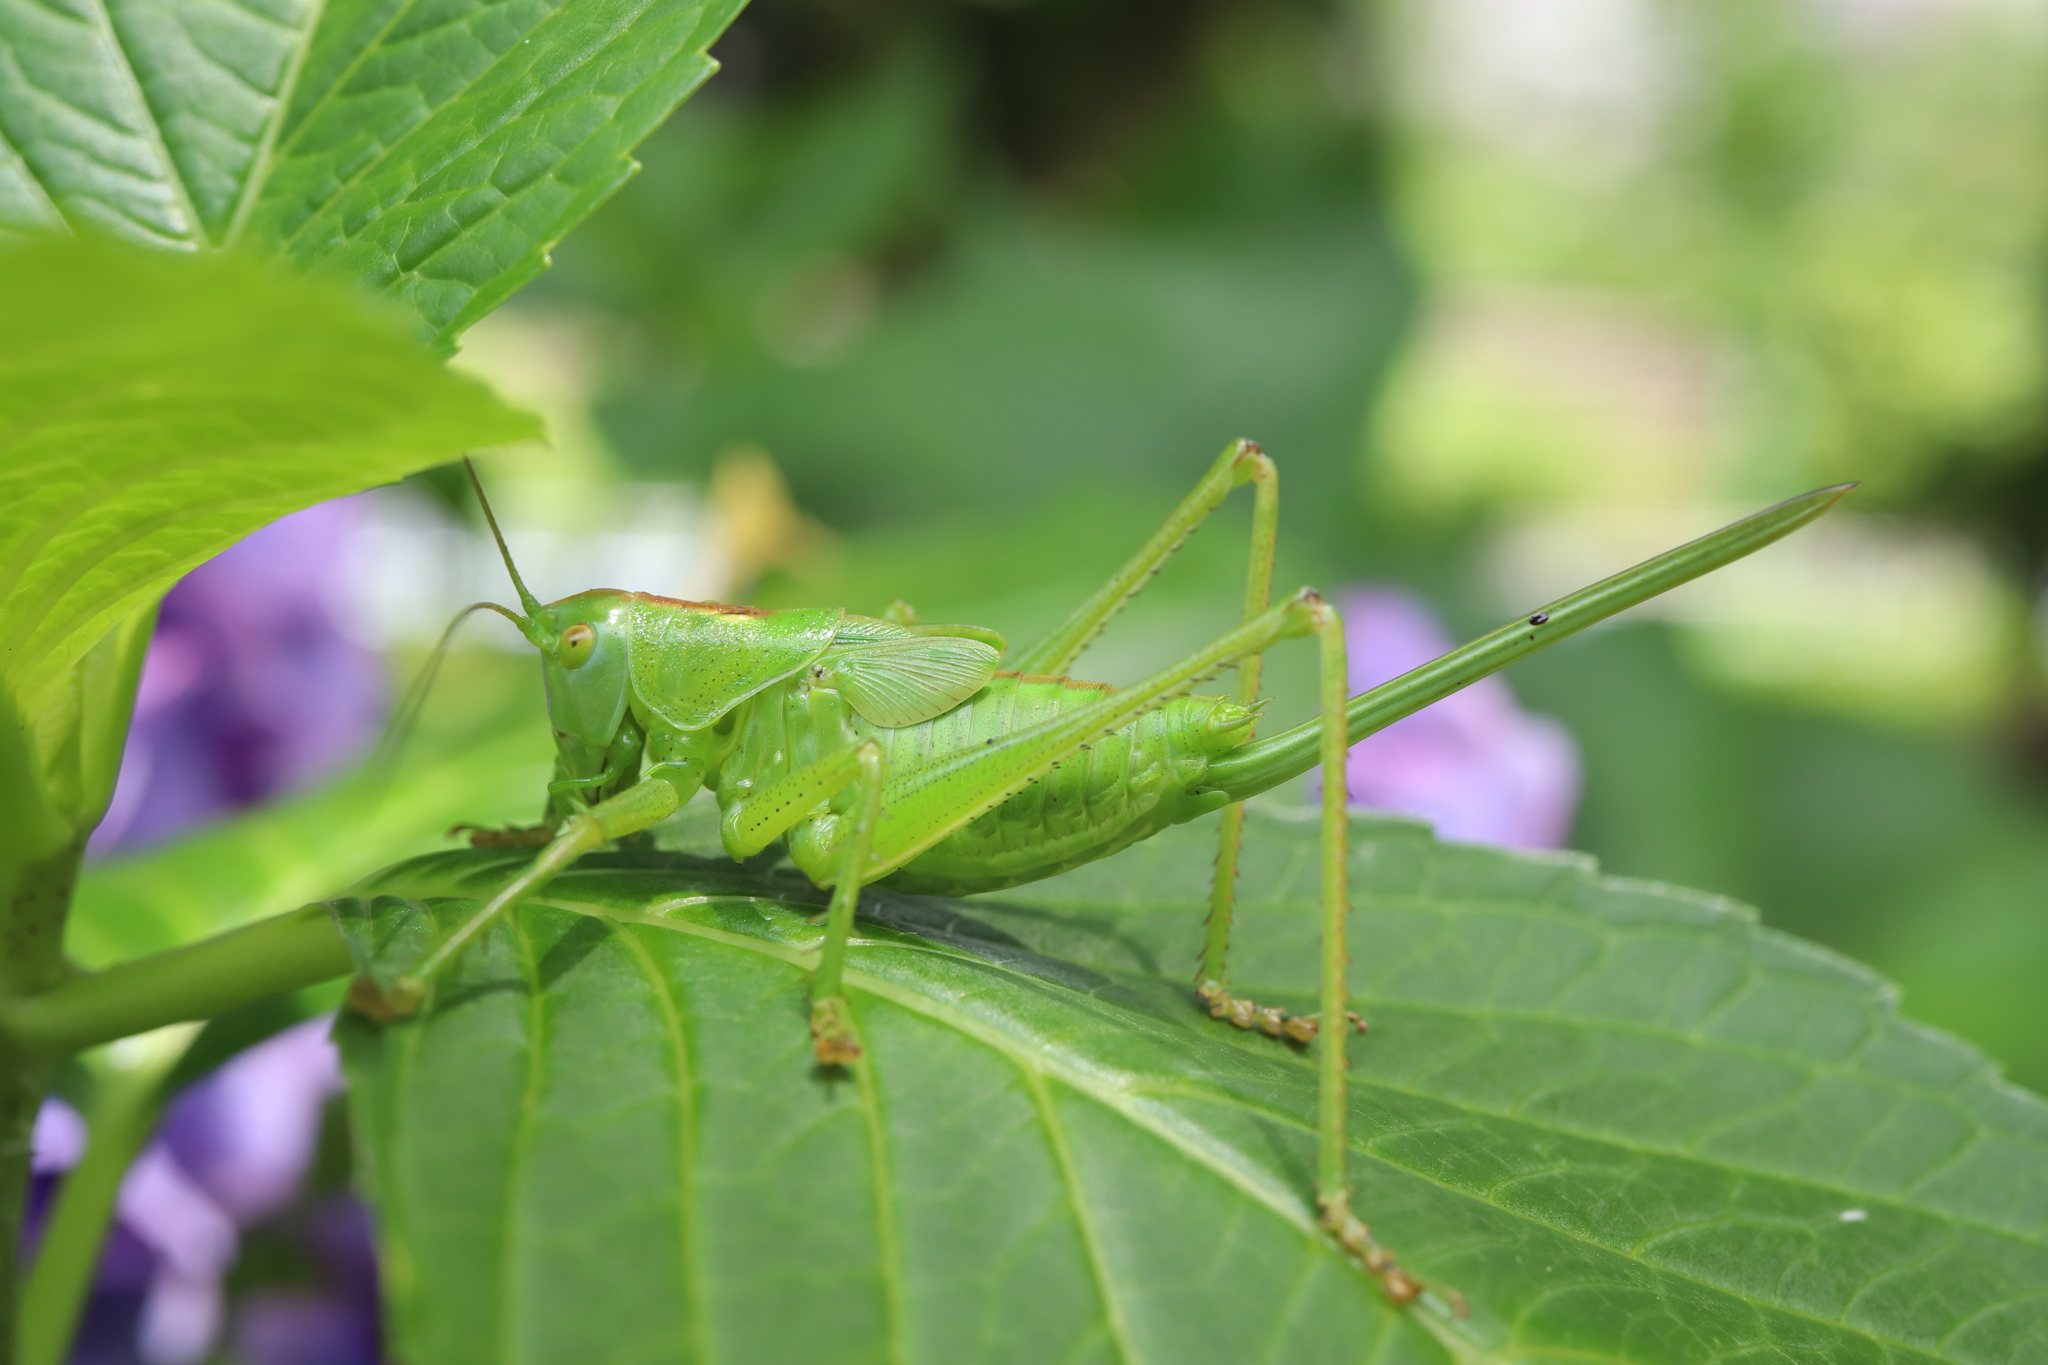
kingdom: Animalia
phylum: Arthropoda
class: Insecta
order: Orthoptera
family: Tettigoniidae
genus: Tettigonia
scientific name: Tettigonia orientalis
